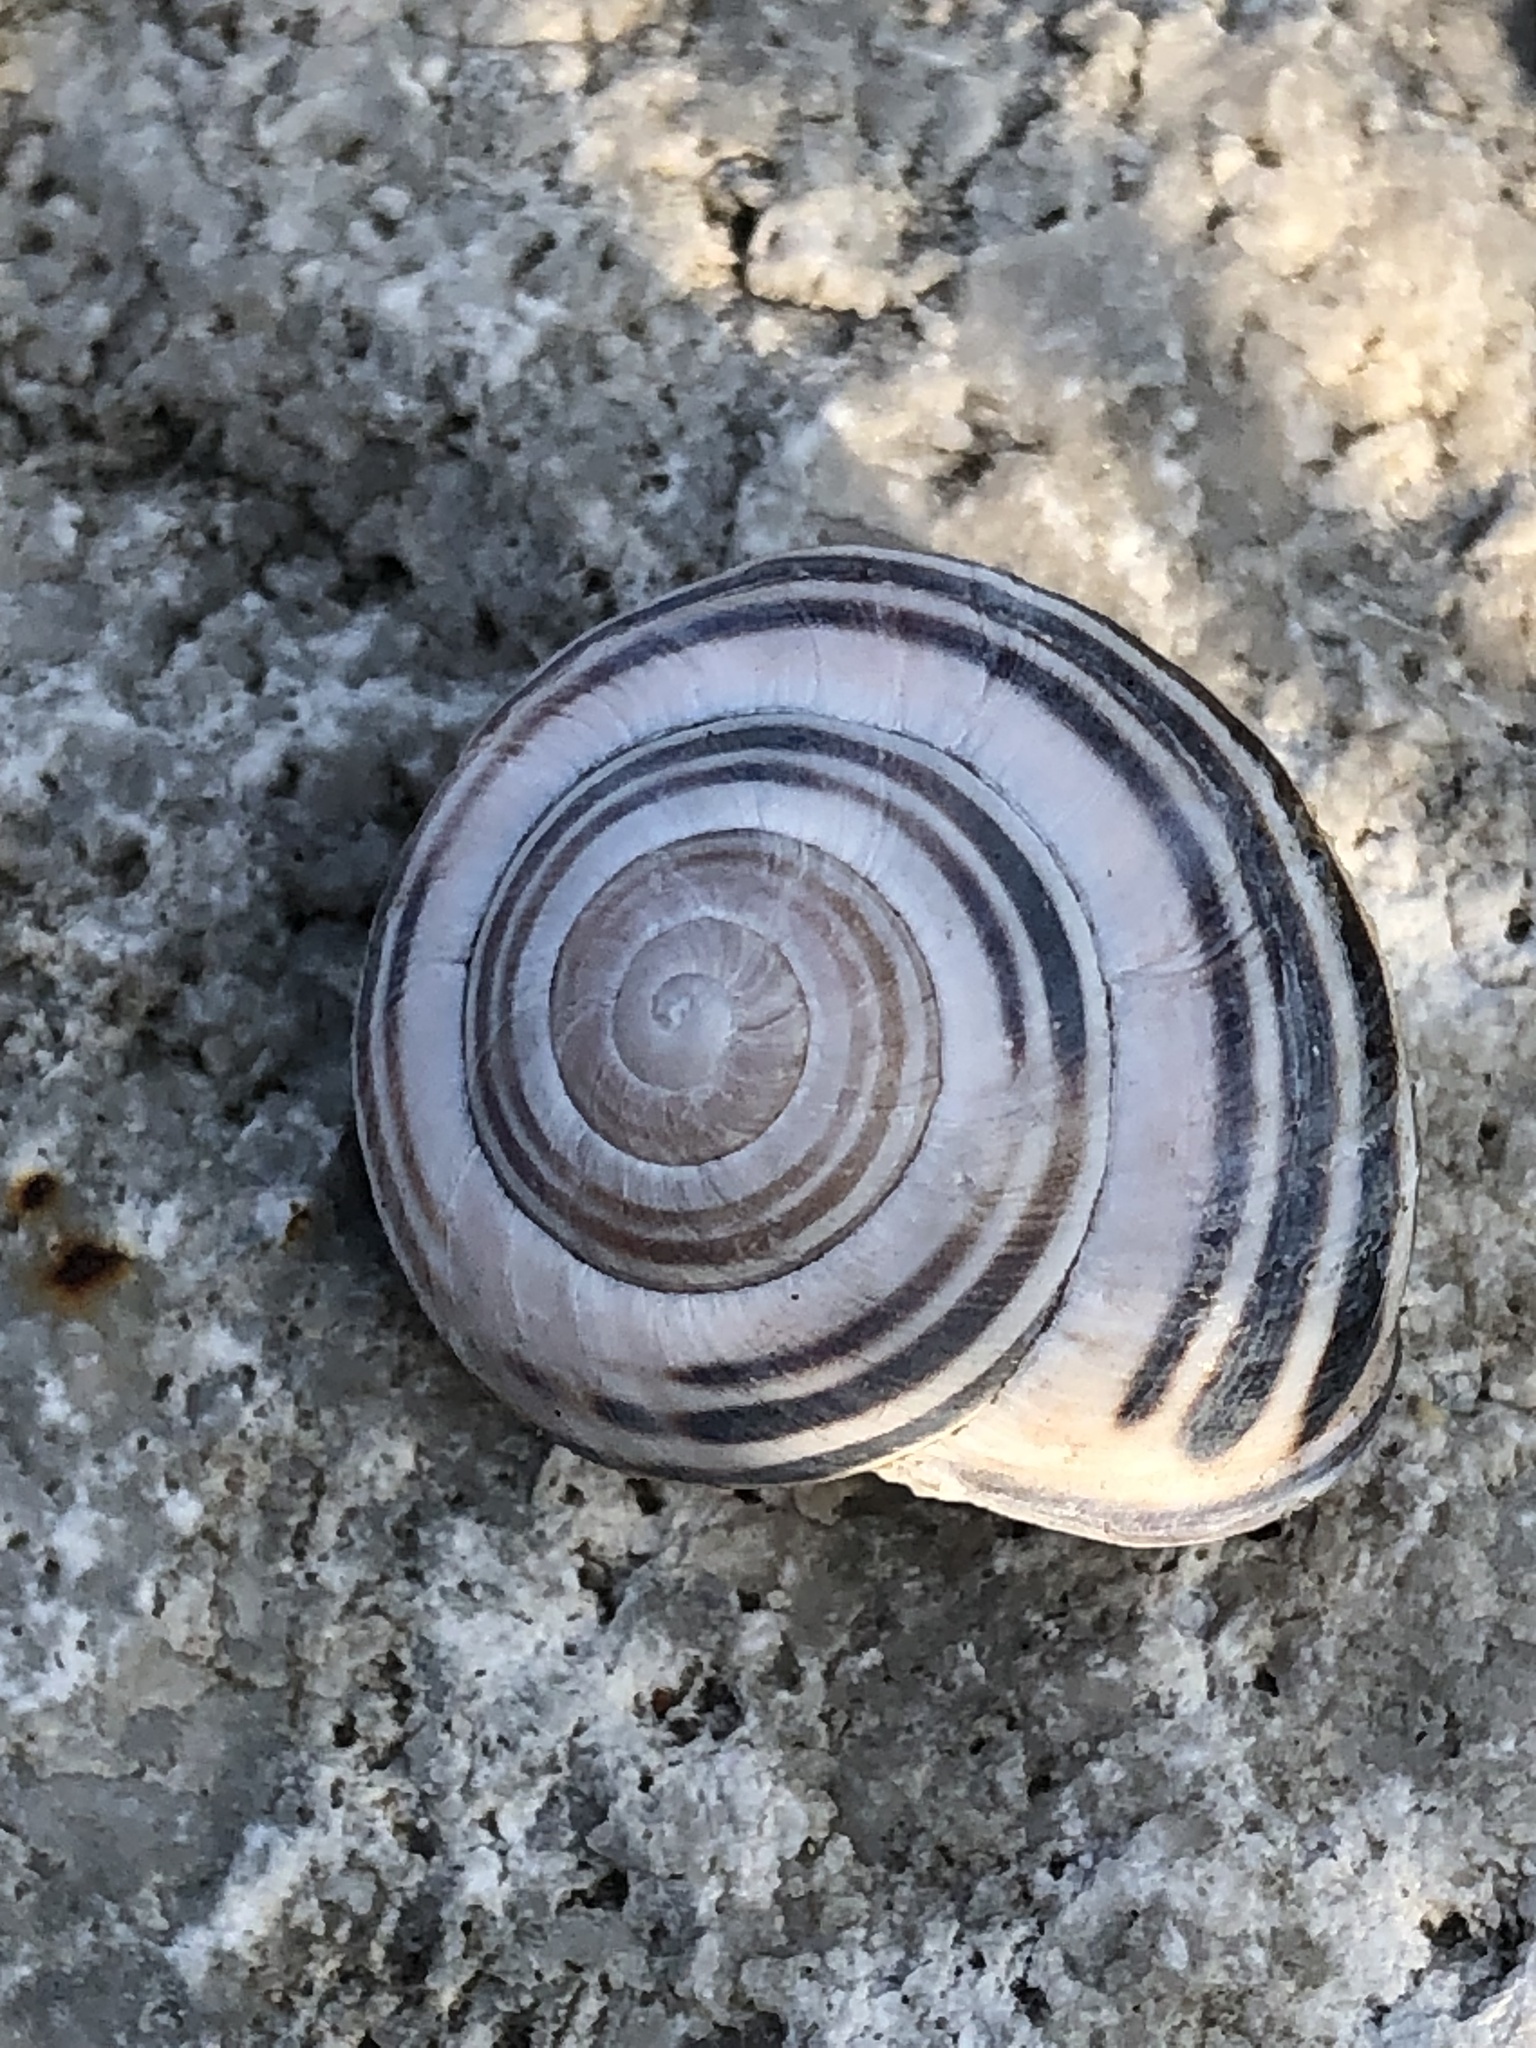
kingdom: Animalia
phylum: Mollusca
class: Gastropoda
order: Stylommatophora
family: Helicidae
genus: Cepaea
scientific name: Cepaea nemoralis
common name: Grovesnail
